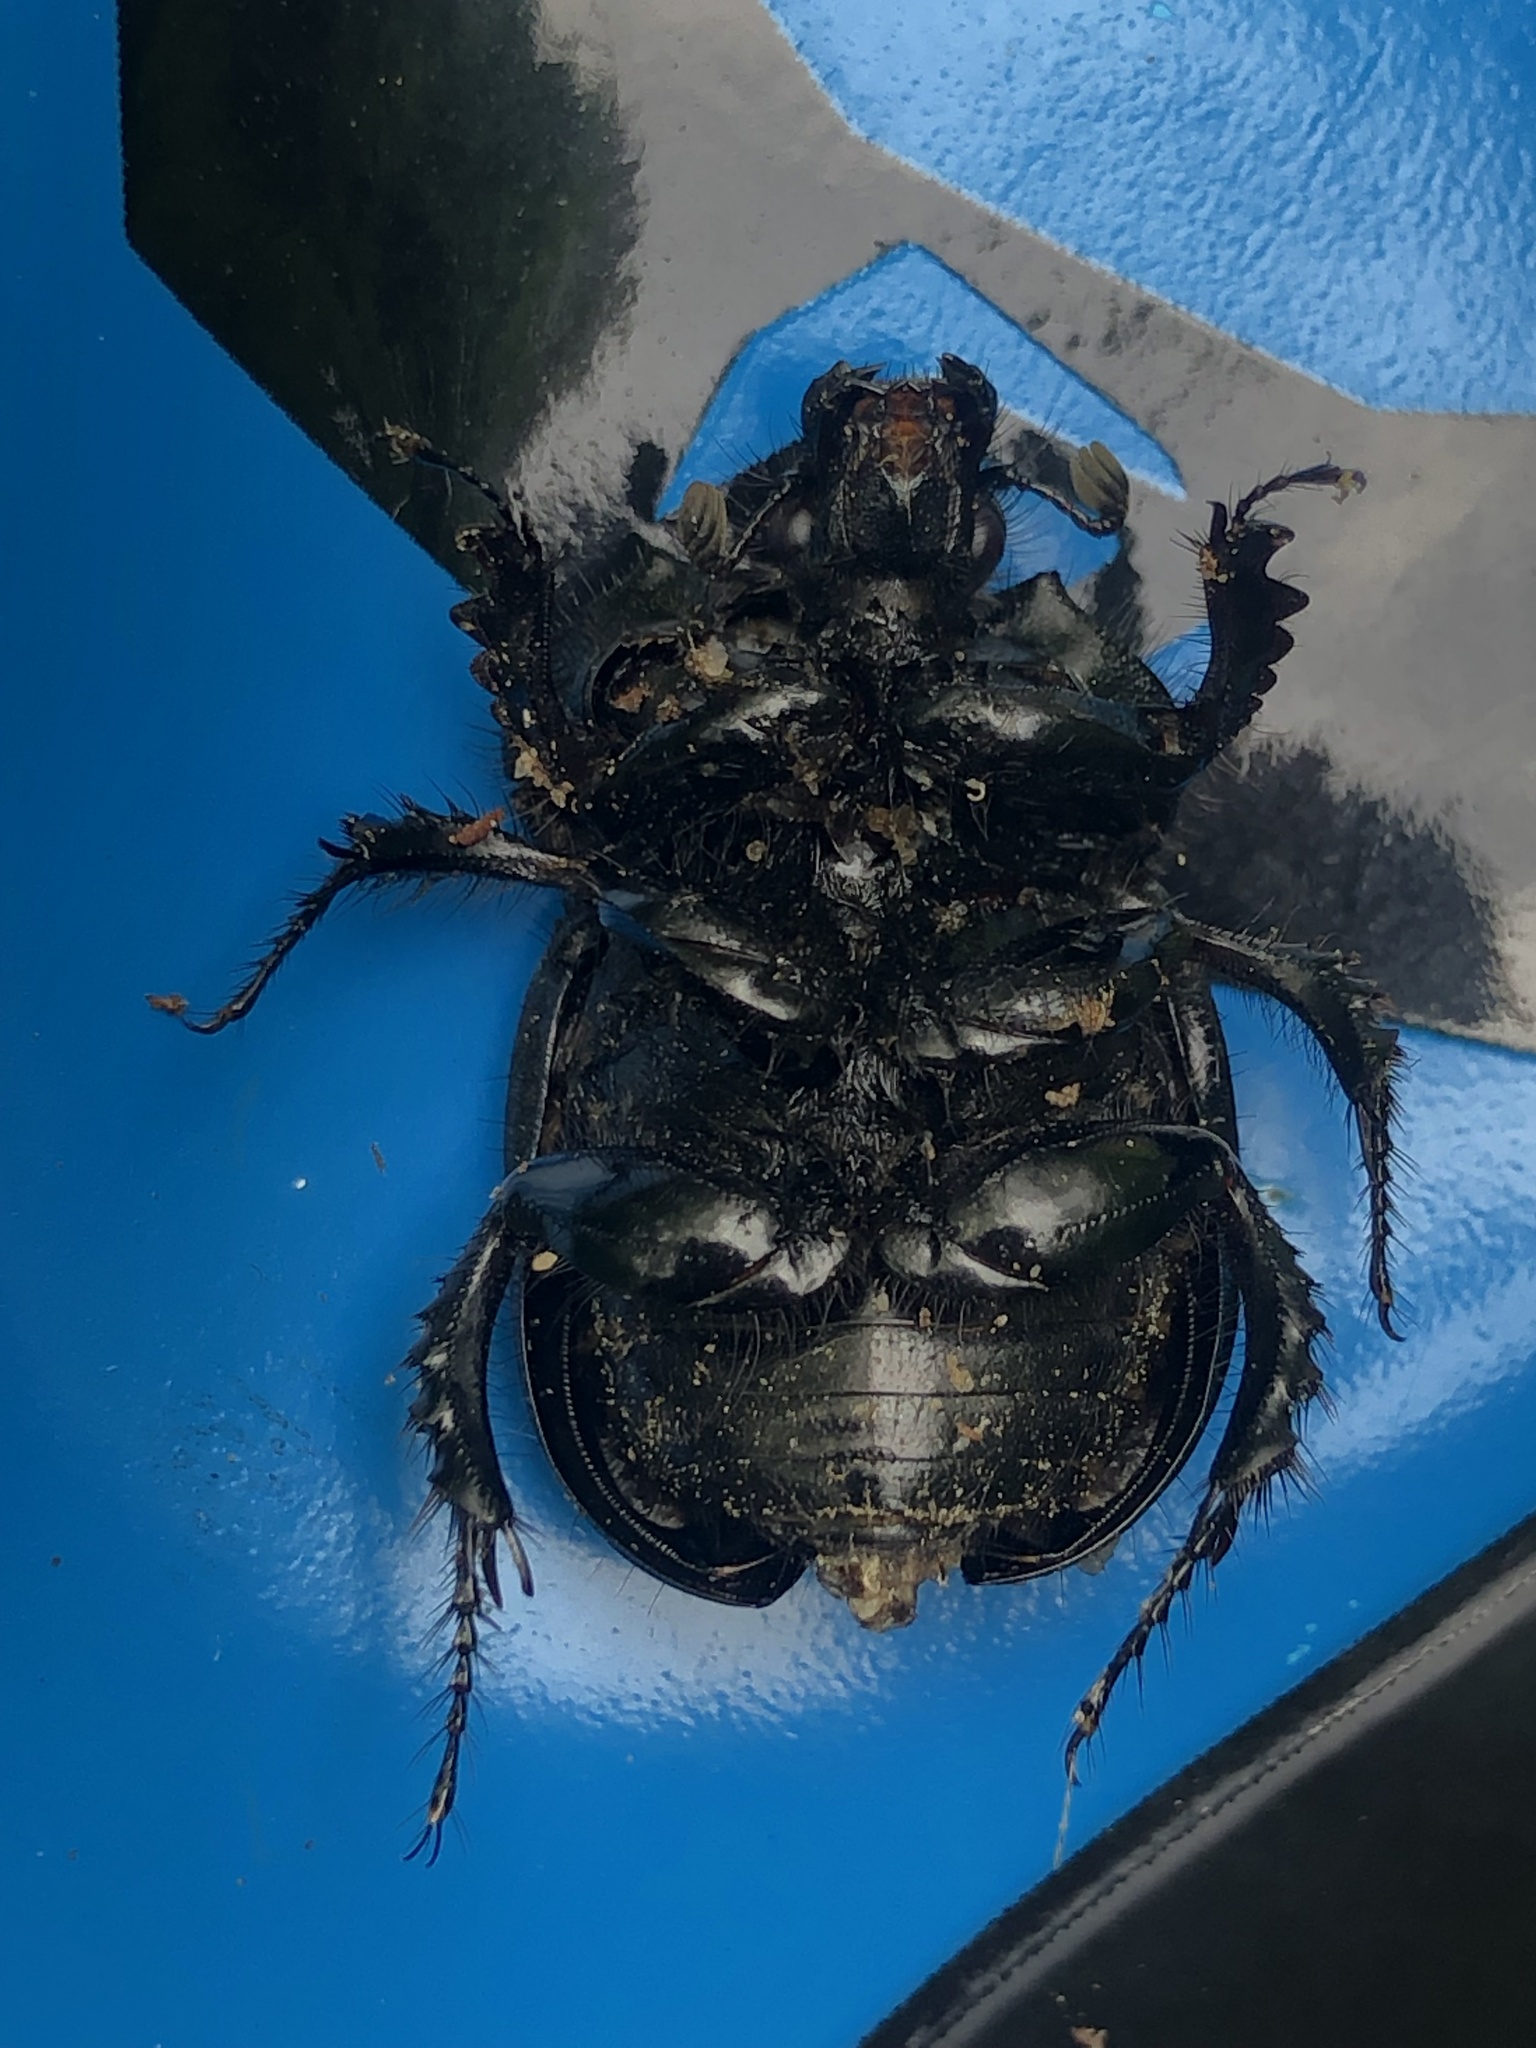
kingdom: Animalia
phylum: Arthropoda
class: Insecta
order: Coleoptera
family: Geotrupidae
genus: Typhaeus
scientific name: Typhaeus typhoeus
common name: Minotaur beetle
